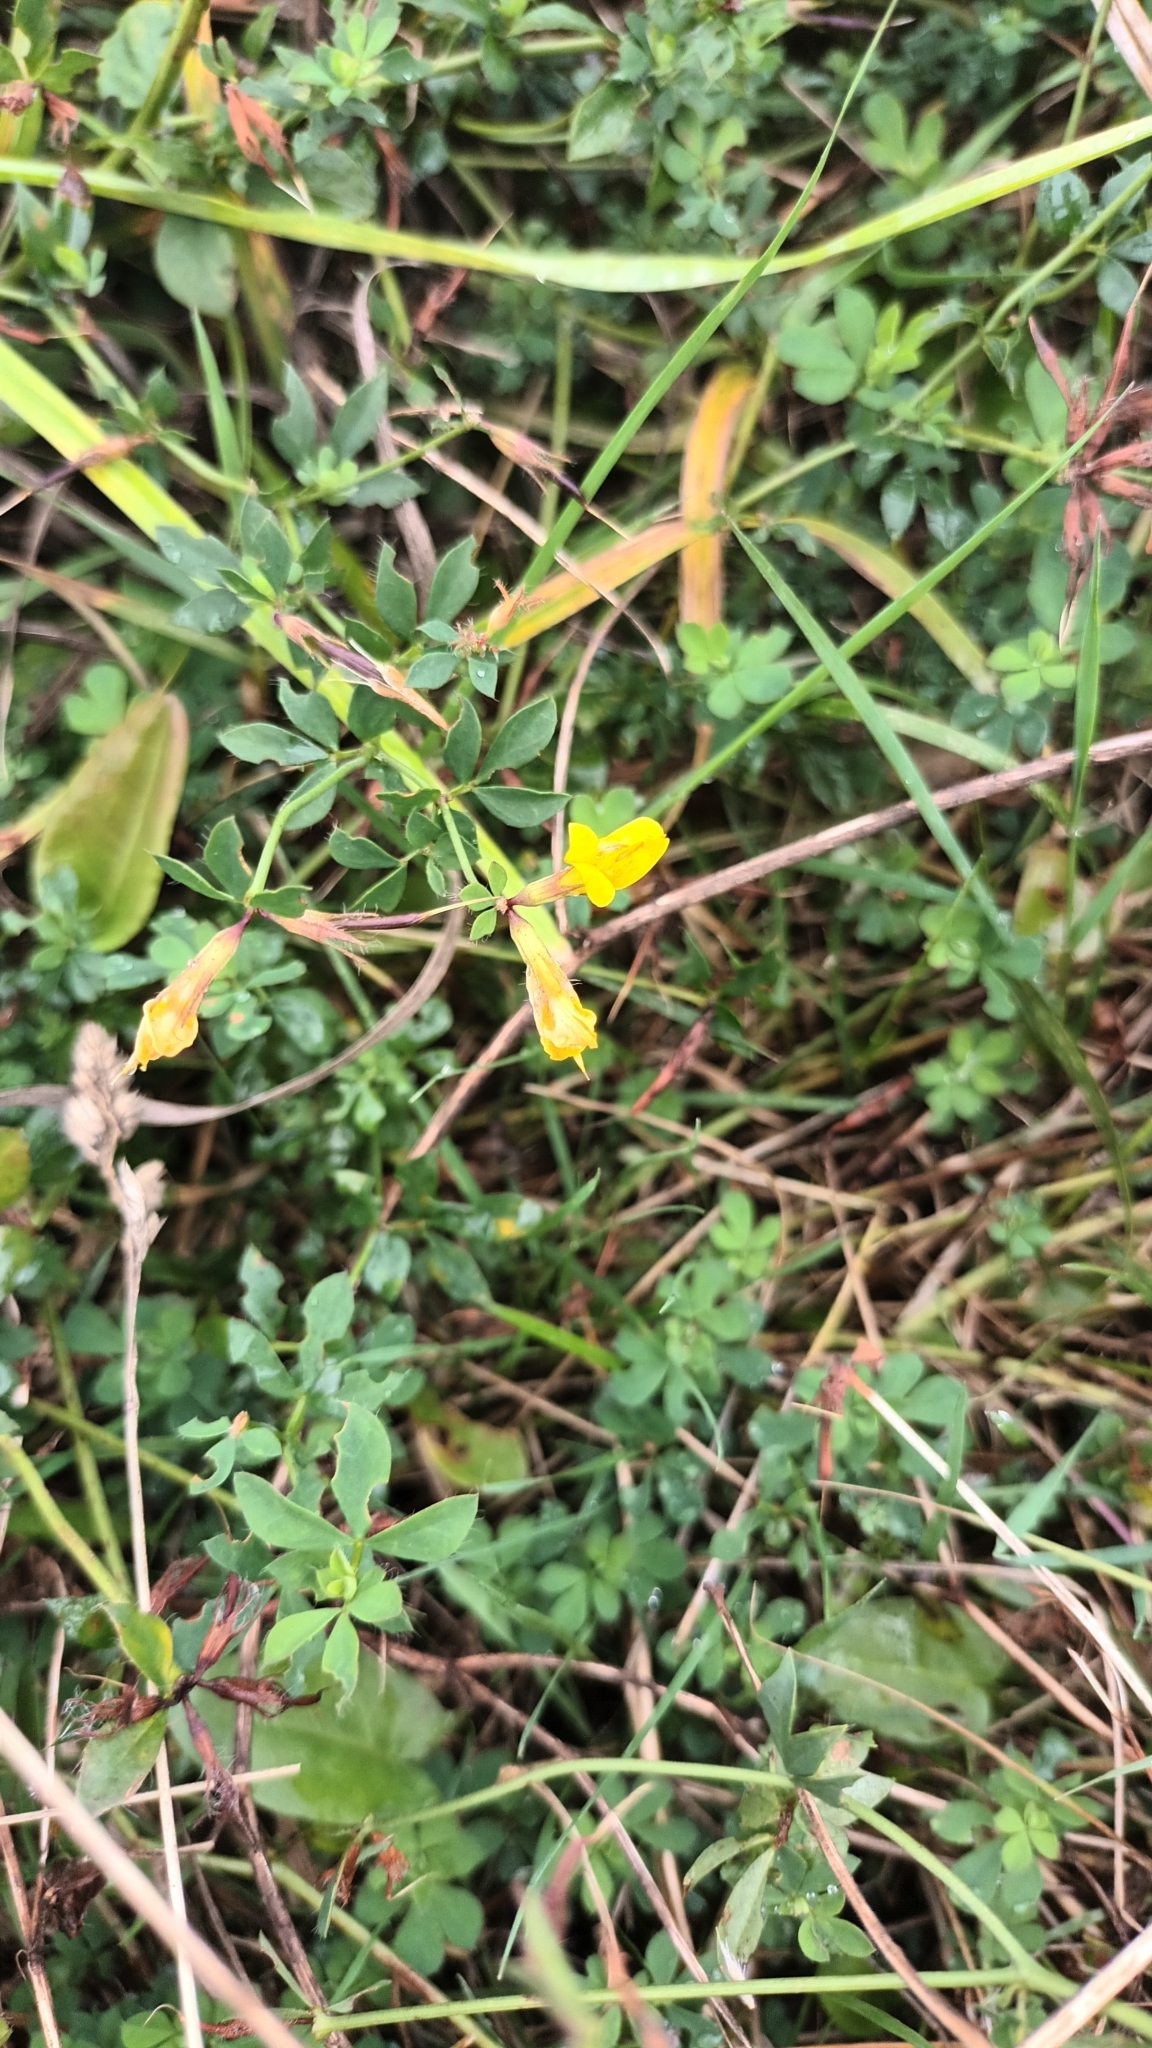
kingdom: Plantae
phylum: Tracheophyta
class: Magnoliopsida
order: Fabales
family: Fabaceae
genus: Lotus
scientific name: Lotus corniculatus
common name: Common bird's-foot-trefoil
